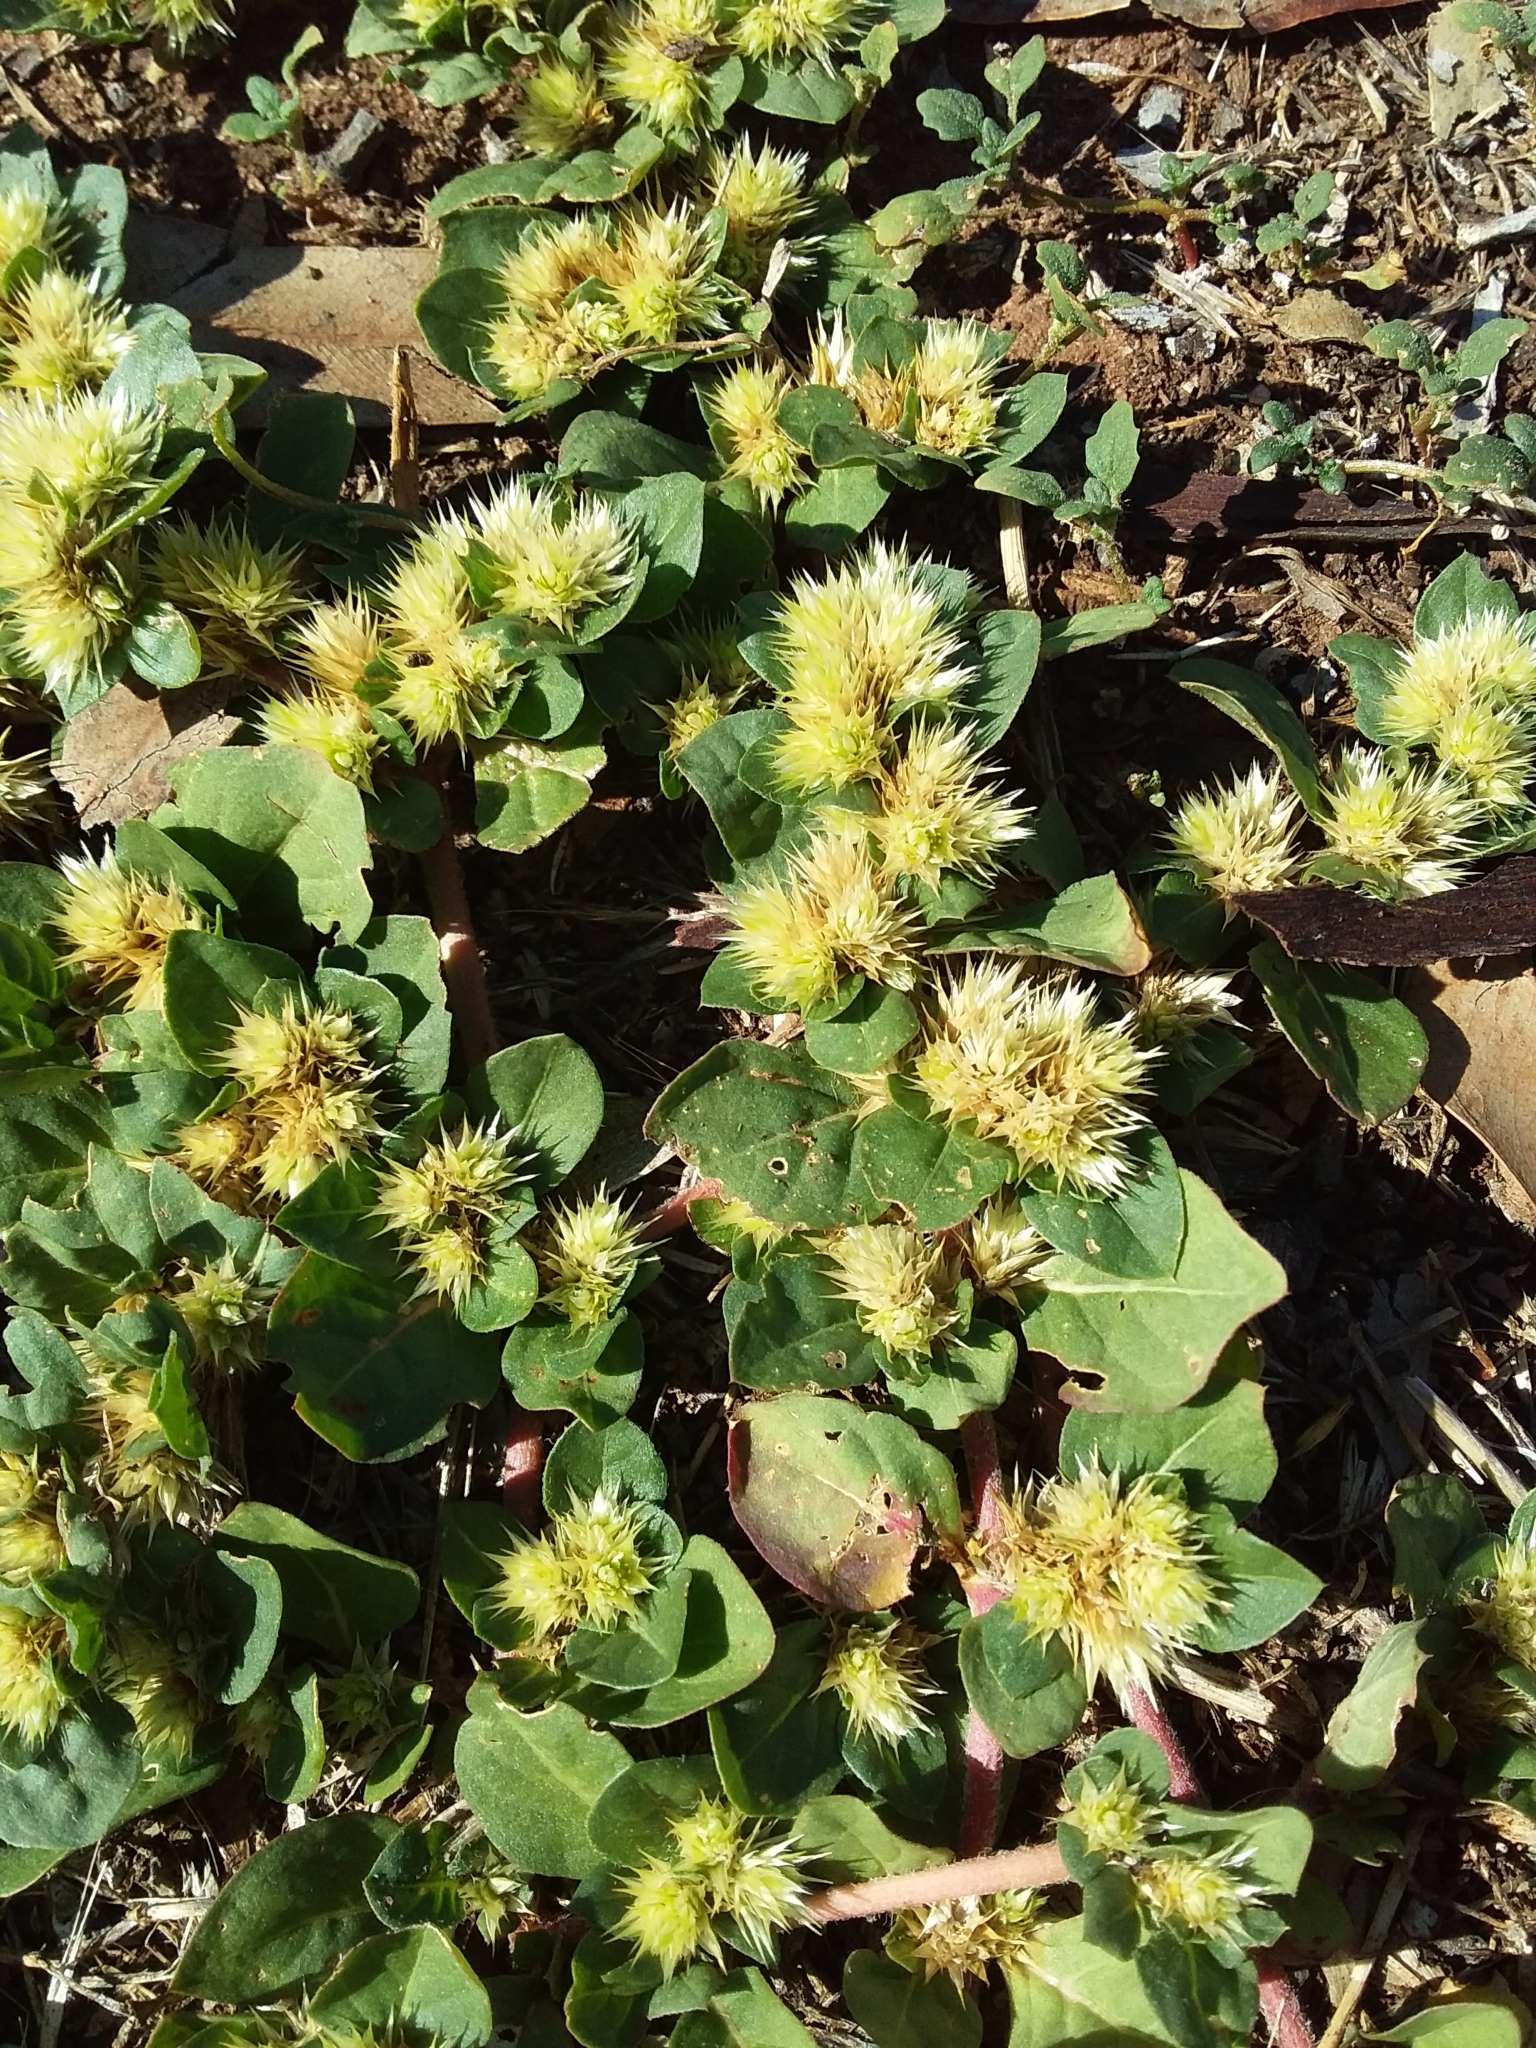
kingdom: Plantae
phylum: Tracheophyta
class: Magnoliopsida
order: Caryophyllales
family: Amaranthaceae
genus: Alternanthera
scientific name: Alternanthera pungens
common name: Khakiweed
